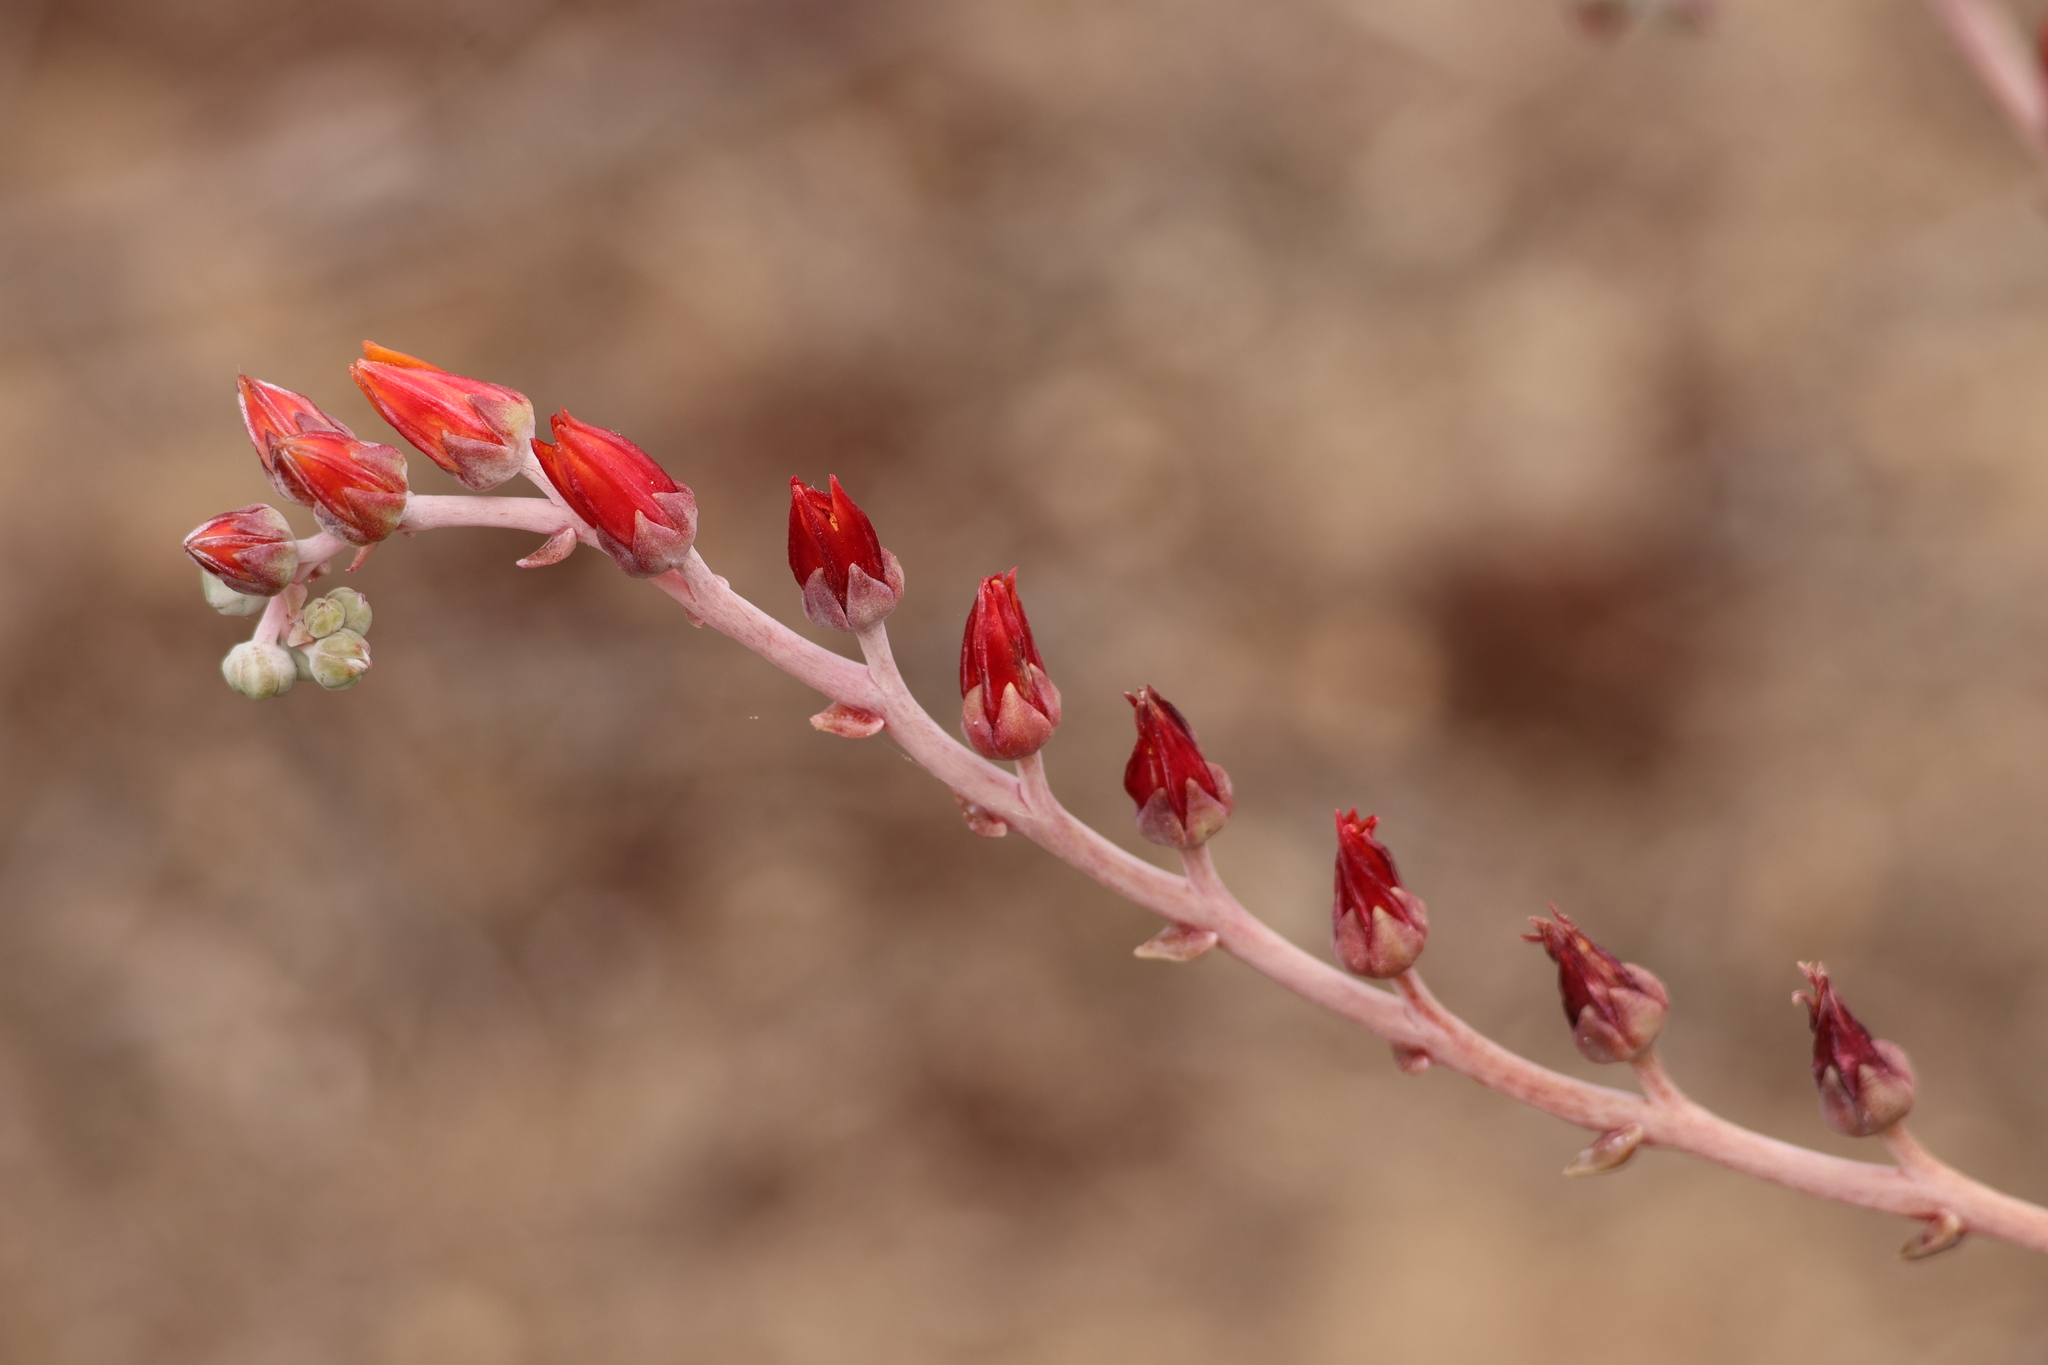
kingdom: Plantae
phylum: Tracheophyta
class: Magnoliopsida
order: Saxifragales
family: Crassulaceae
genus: Dudleya
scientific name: Dudleya lanceolata
